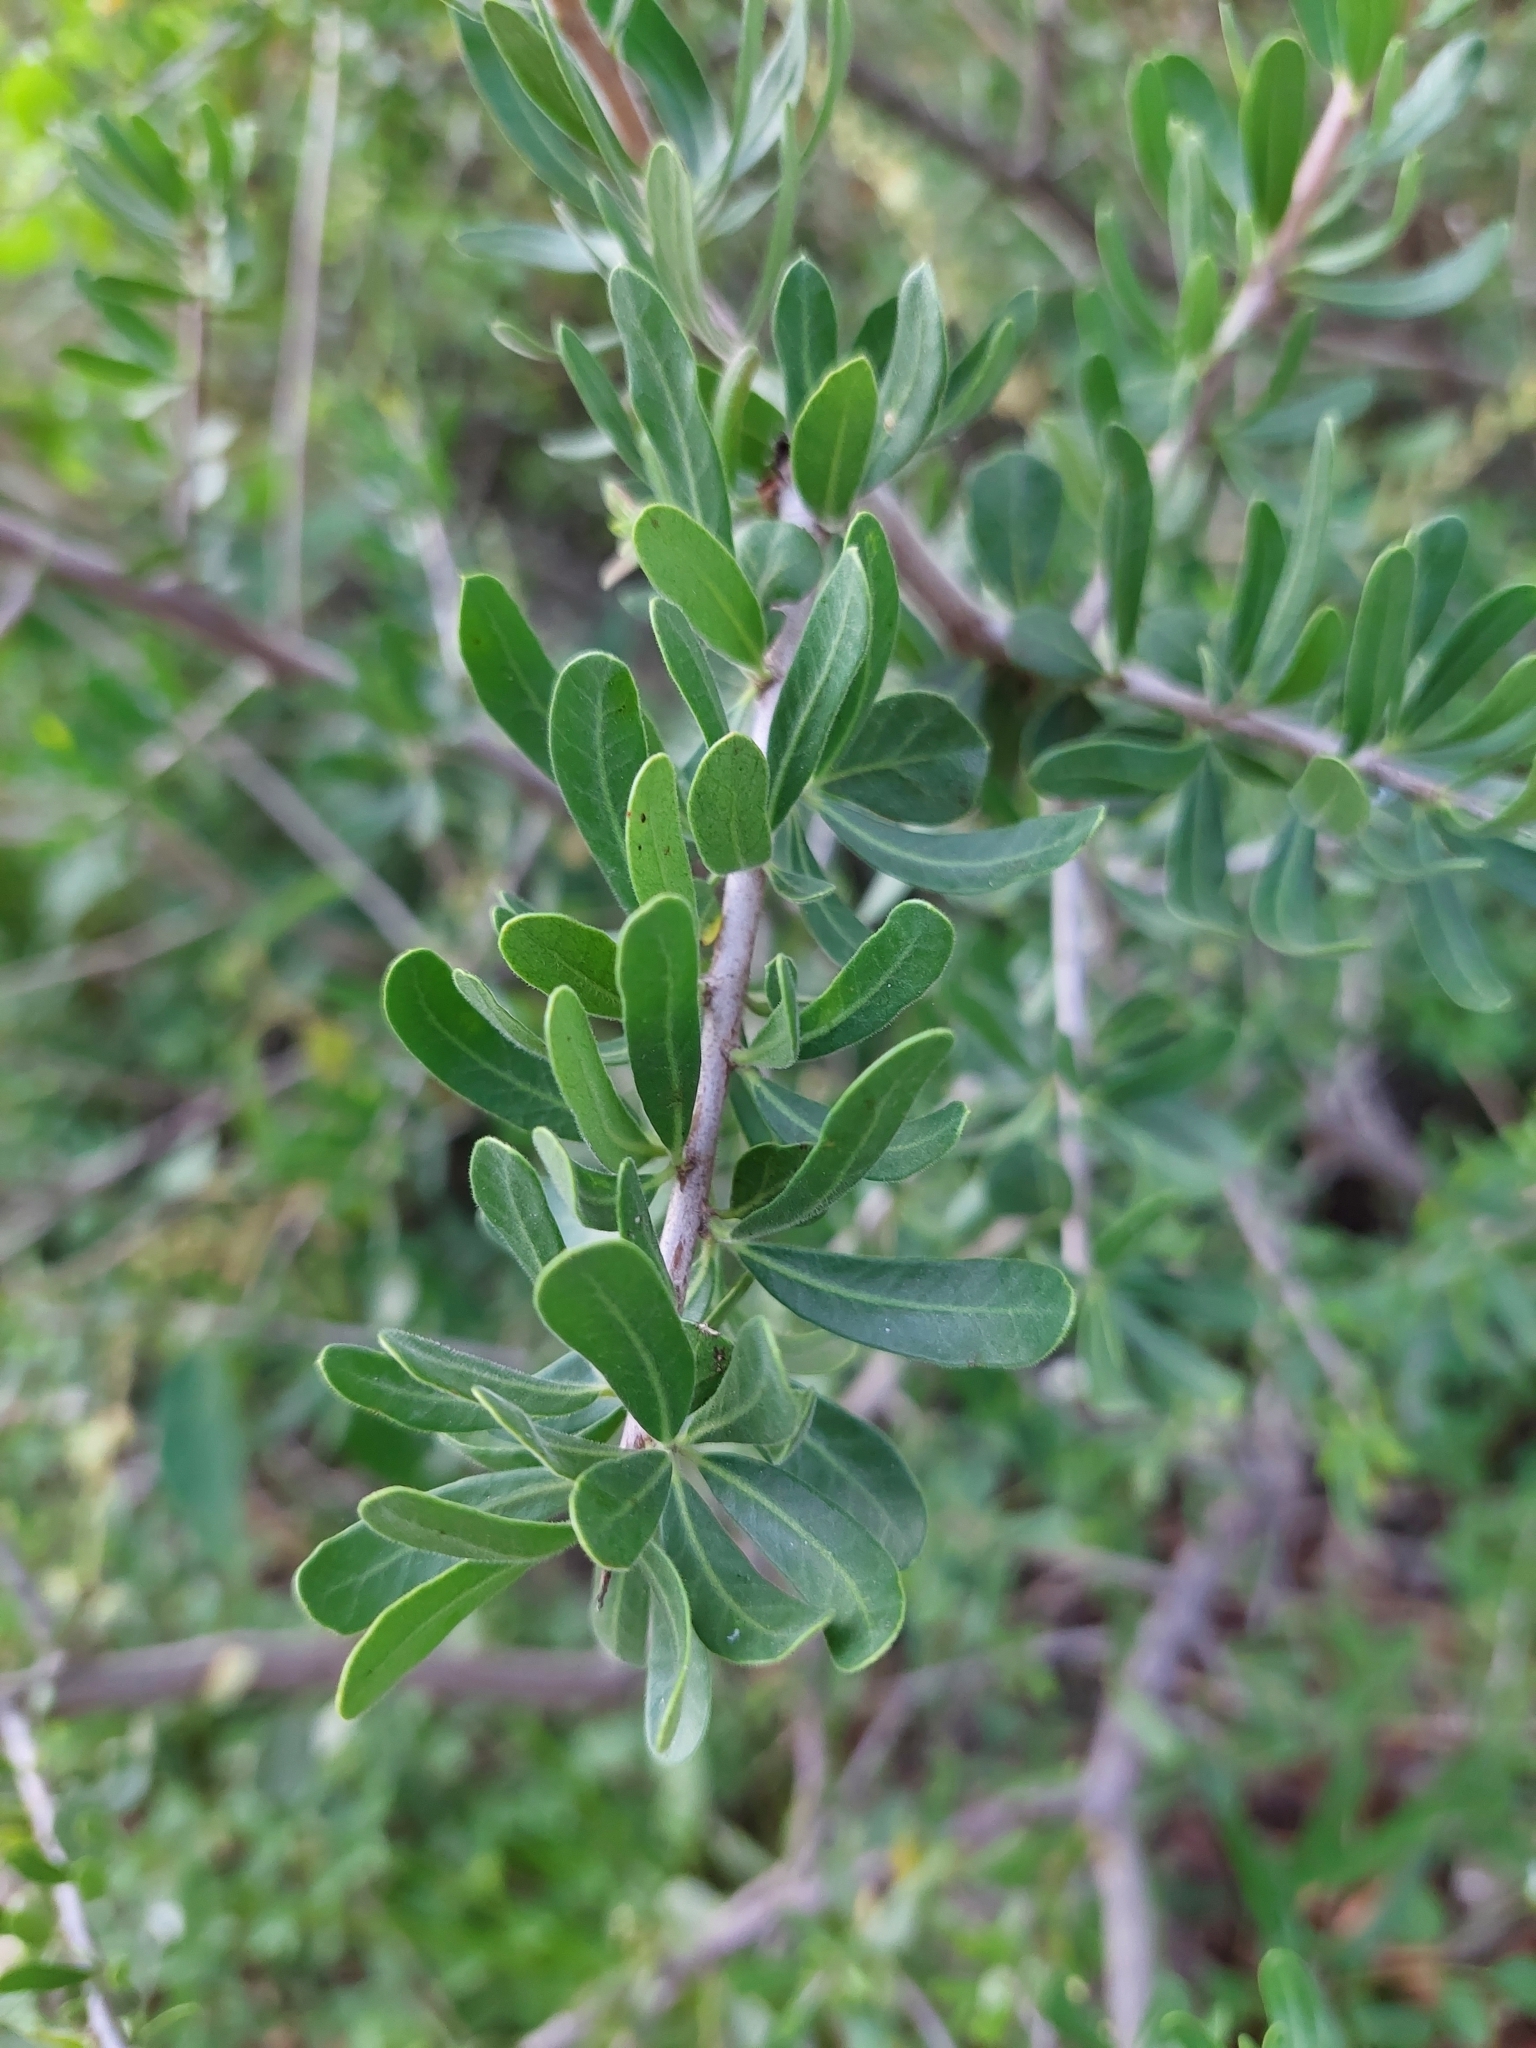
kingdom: Plantae
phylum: Tracheophyta
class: Magnoliopsida
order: Sapindales
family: Anacardiaceae
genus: Schinus
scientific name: Schinus fasciculata
